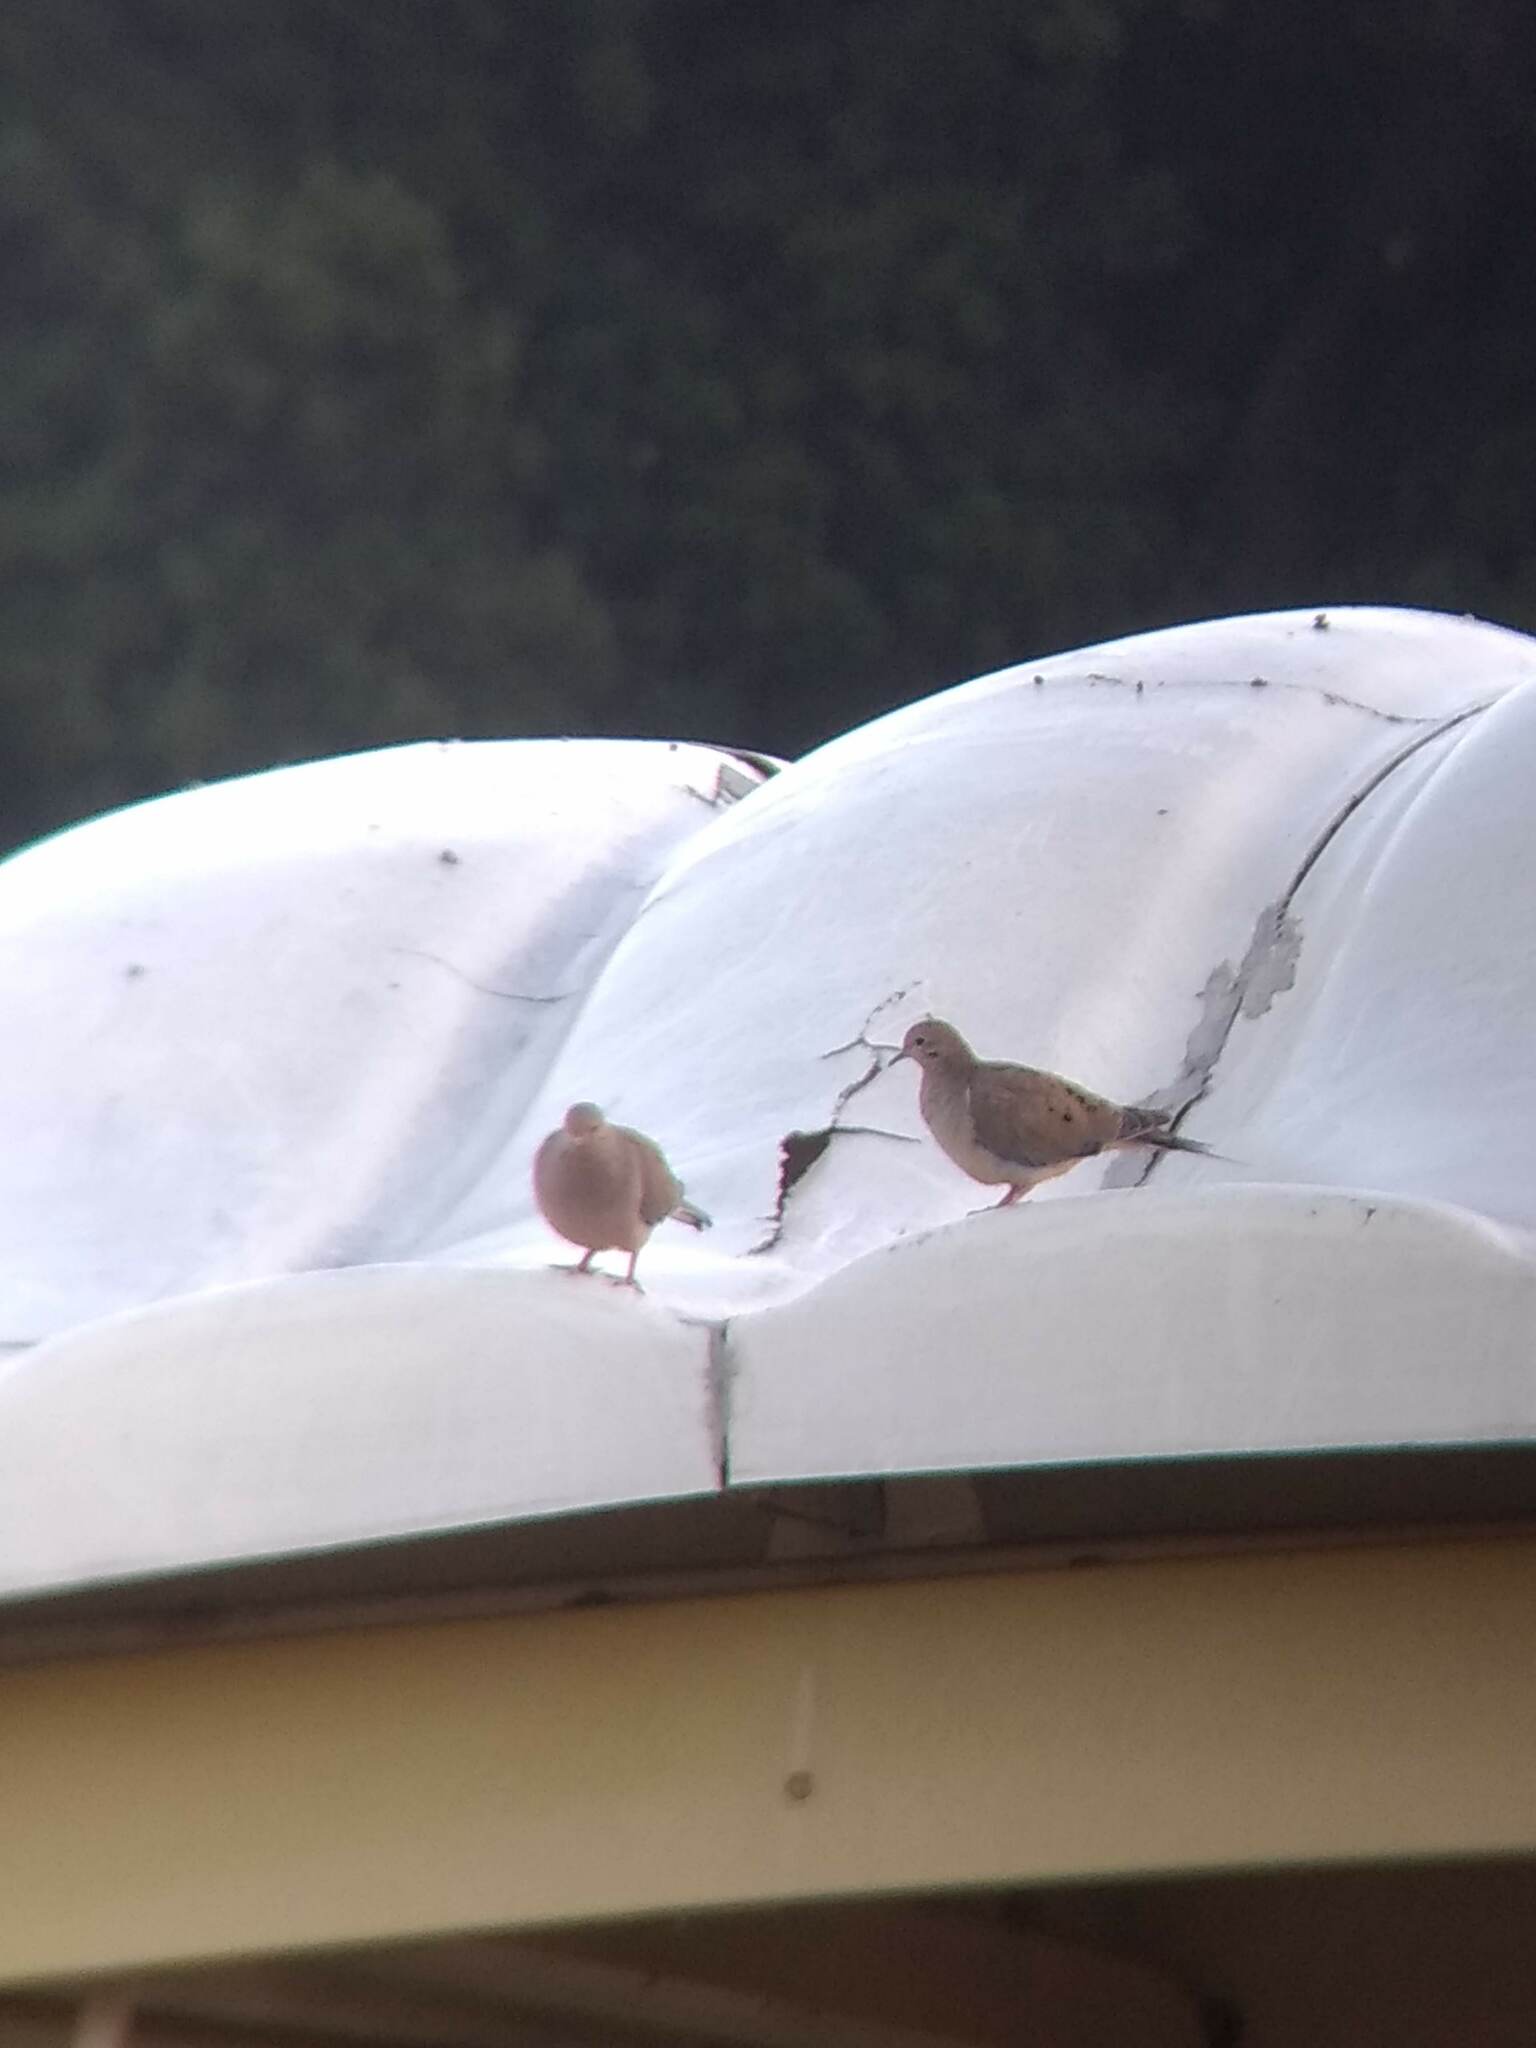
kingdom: Animalia
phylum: Chordata
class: Aves
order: Columbiformes
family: Columbidae
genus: Zenaida
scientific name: Zenaida macroura
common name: Mourning dove
